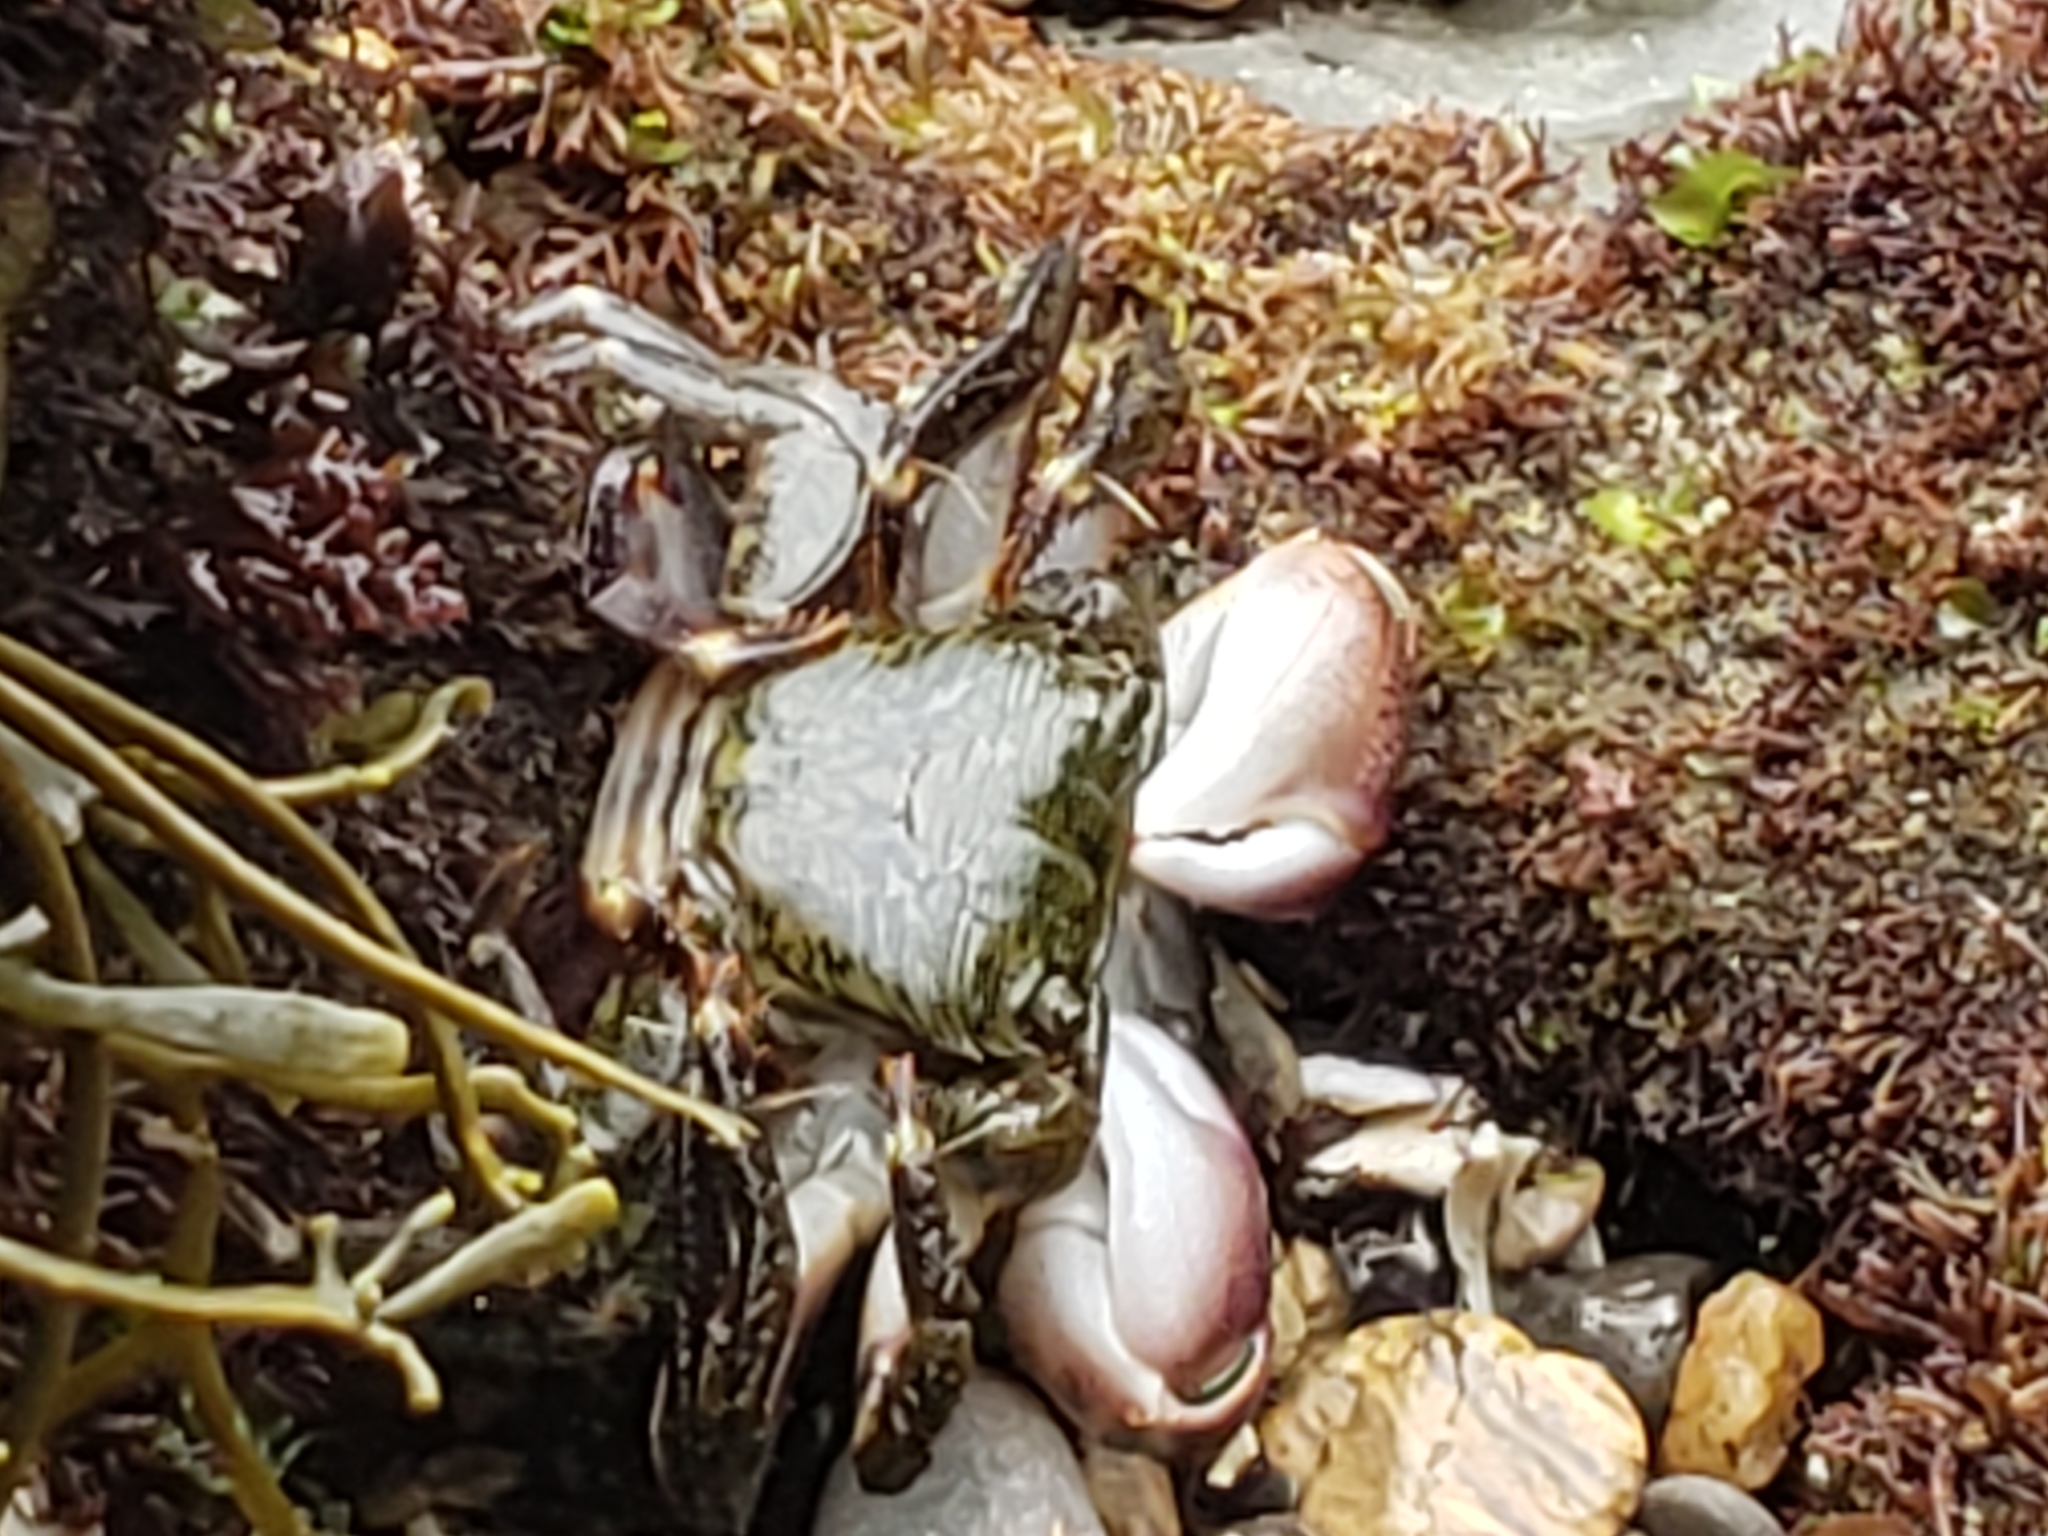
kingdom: Animalia
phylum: Arthropoda
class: Malacostraca
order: Decapoda
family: Grapsidae
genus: Pachygrapsus
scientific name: Pachygrapsus crassipes
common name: Striped shore crab
